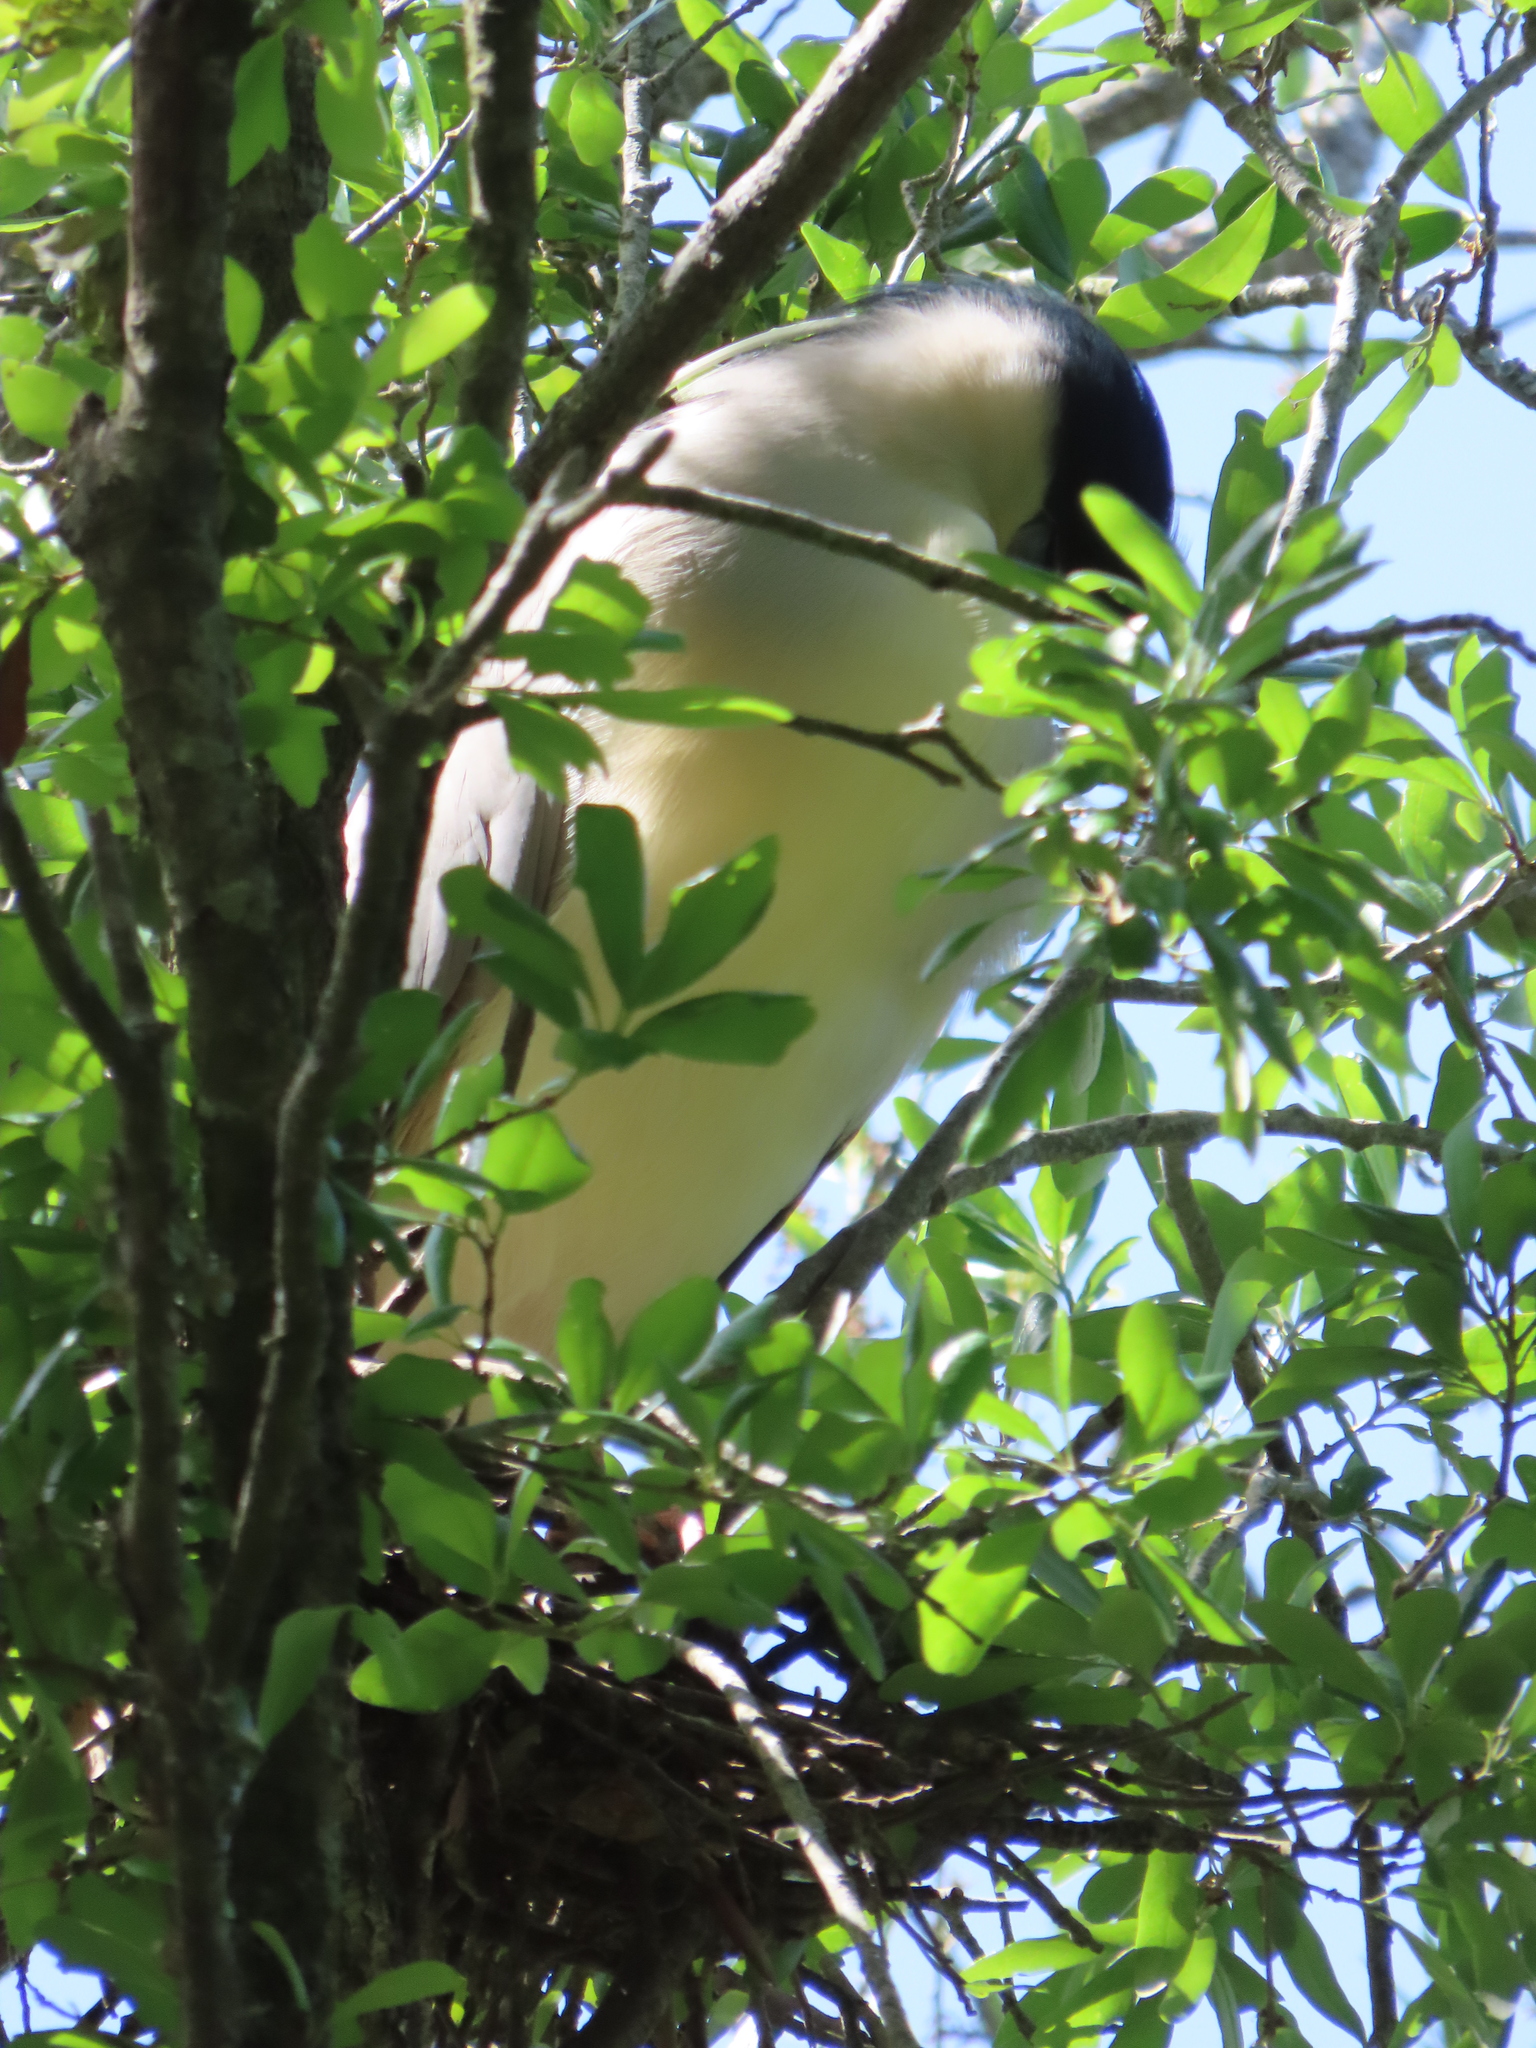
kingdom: Animalia
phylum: Chordata
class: Aves
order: Pelecaniformes
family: Ardeidae
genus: Nycticorax
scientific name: Nycticorax nycticorax
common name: Black-crowned night heron
